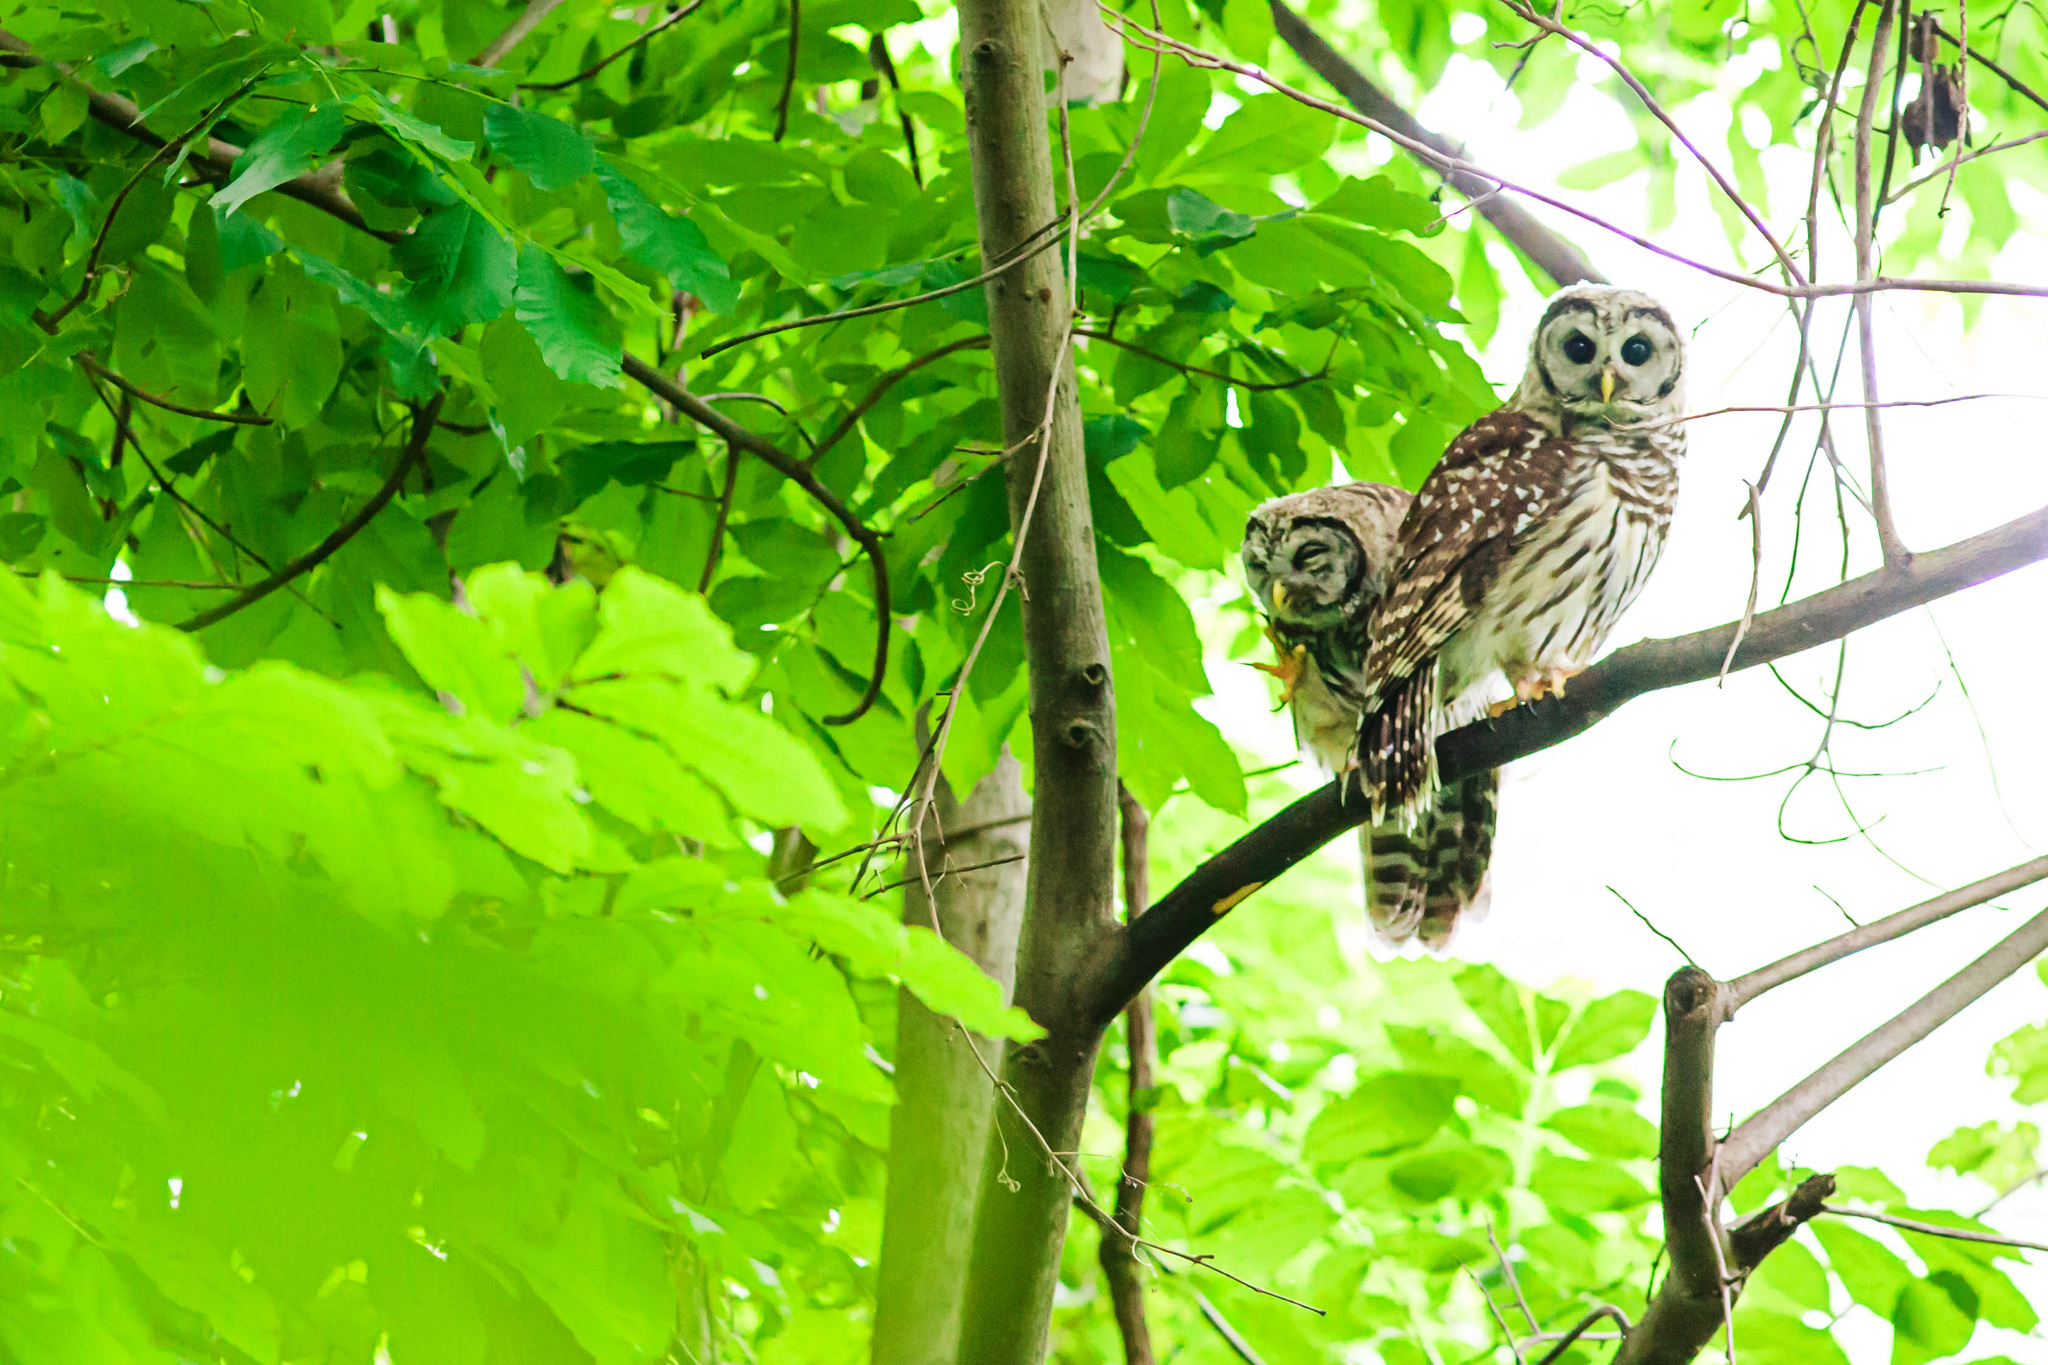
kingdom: Animalia
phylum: Chordata
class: Aves
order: Strigiformes
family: Strigidae
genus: Strix
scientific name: Strix varia
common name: Barred owl
